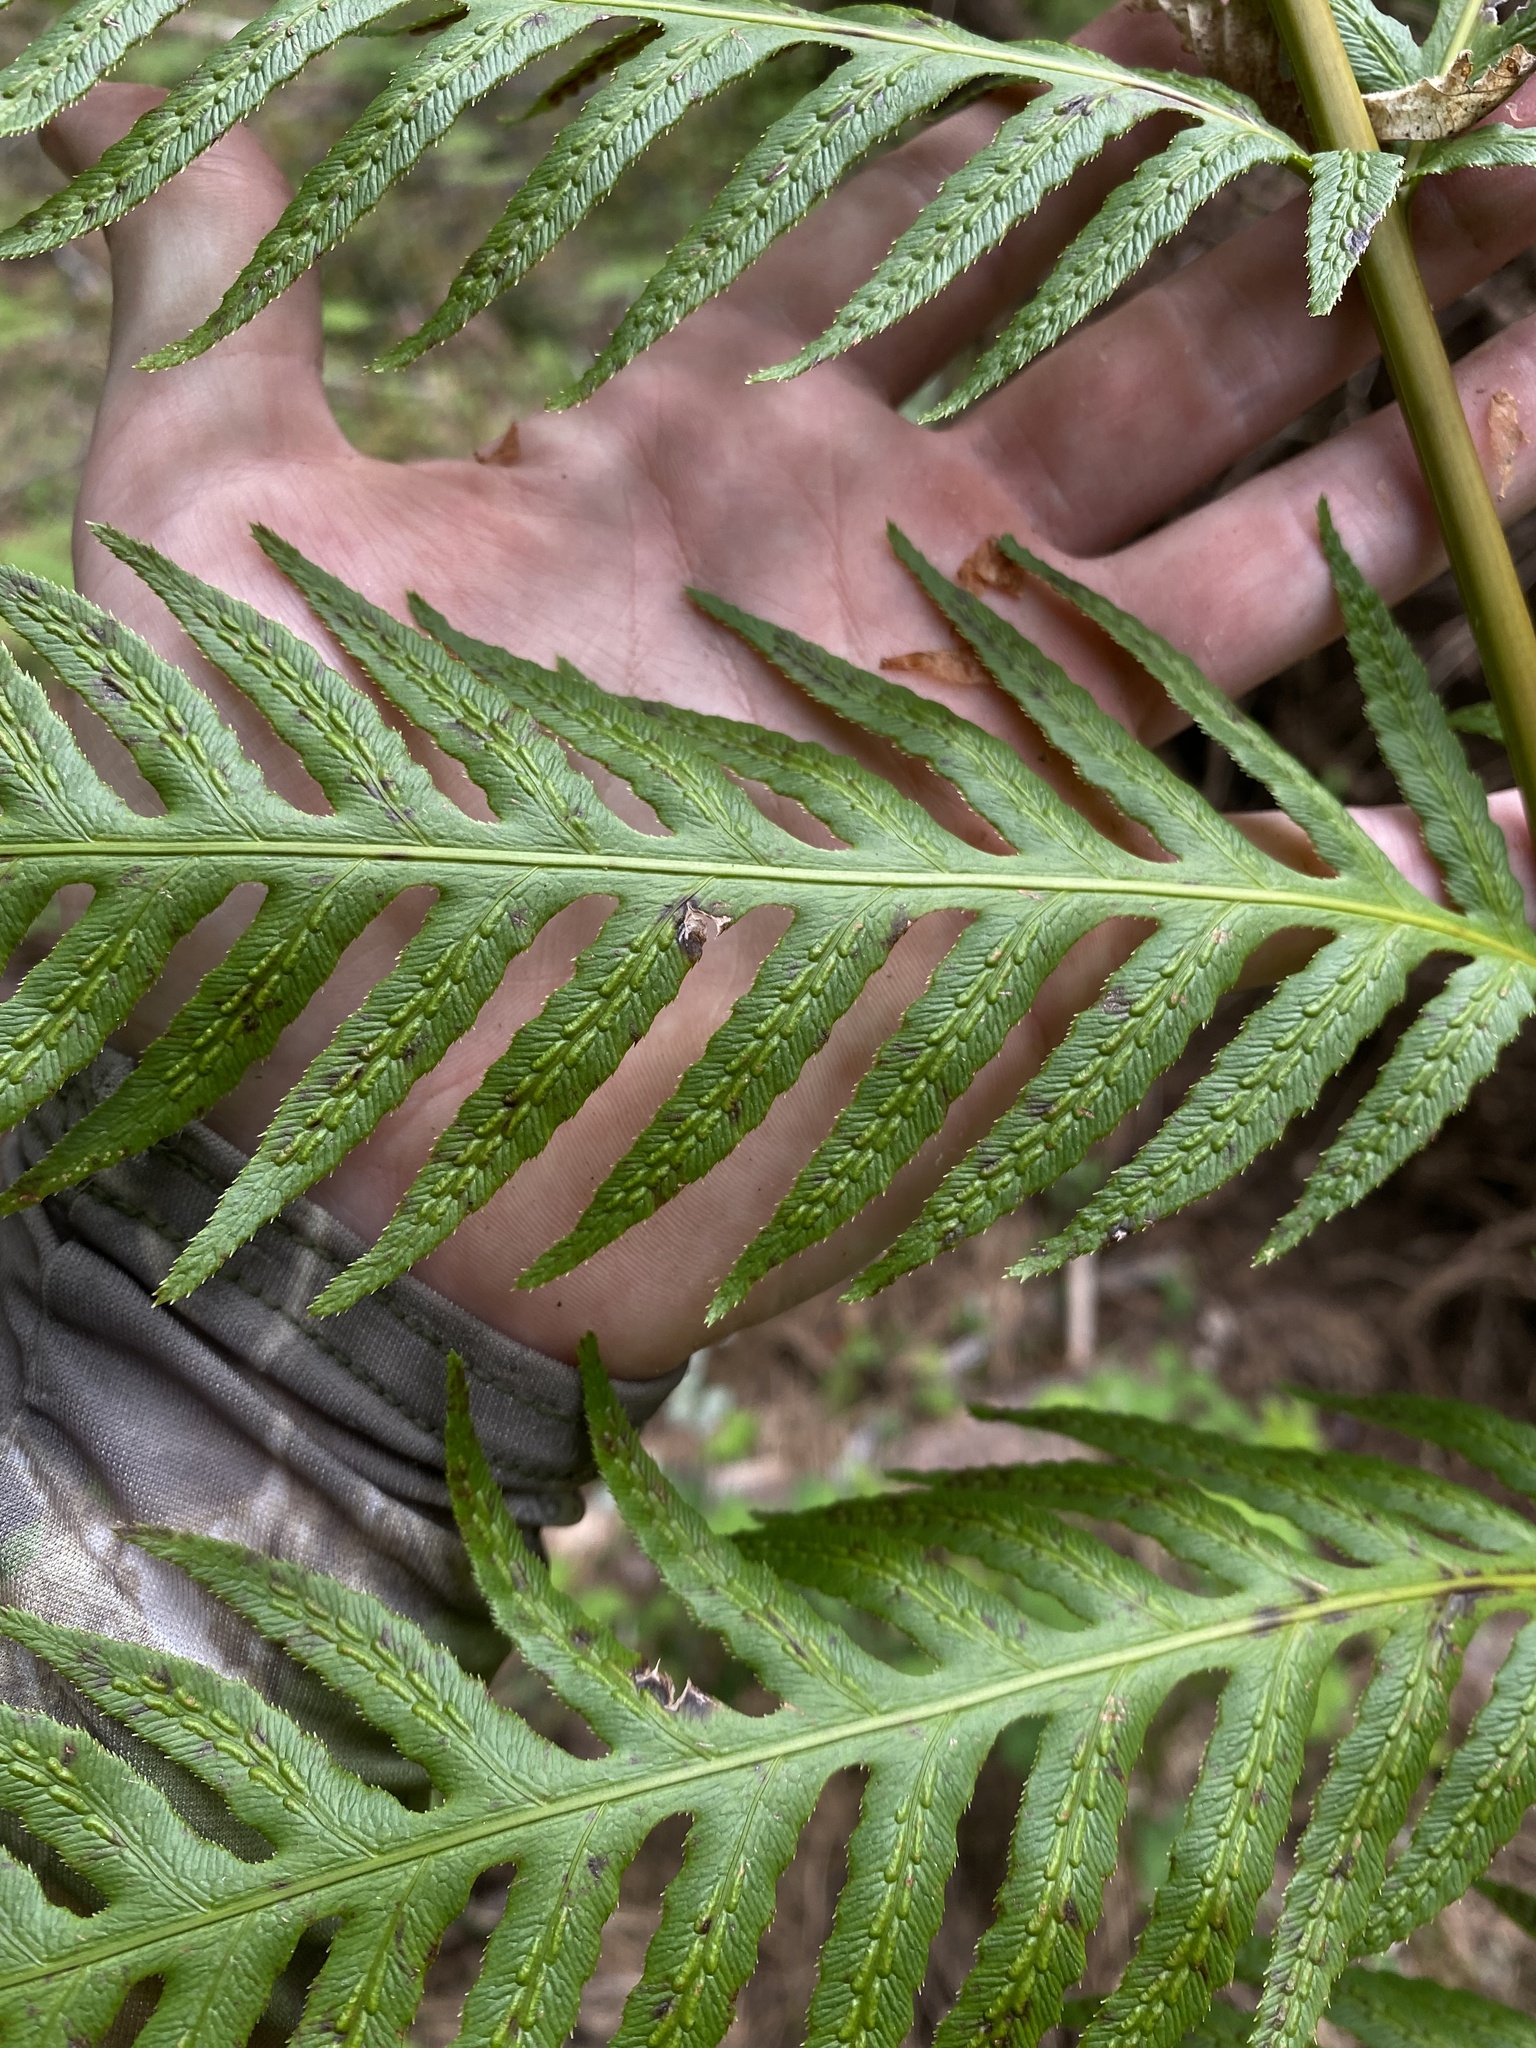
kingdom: Plantae
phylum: Tracheophyta
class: Polypodiopsida
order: Polypodiales
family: Blechnaceae
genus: Woodwardia
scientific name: Woodwardia fimbriata
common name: Giant chain fern
